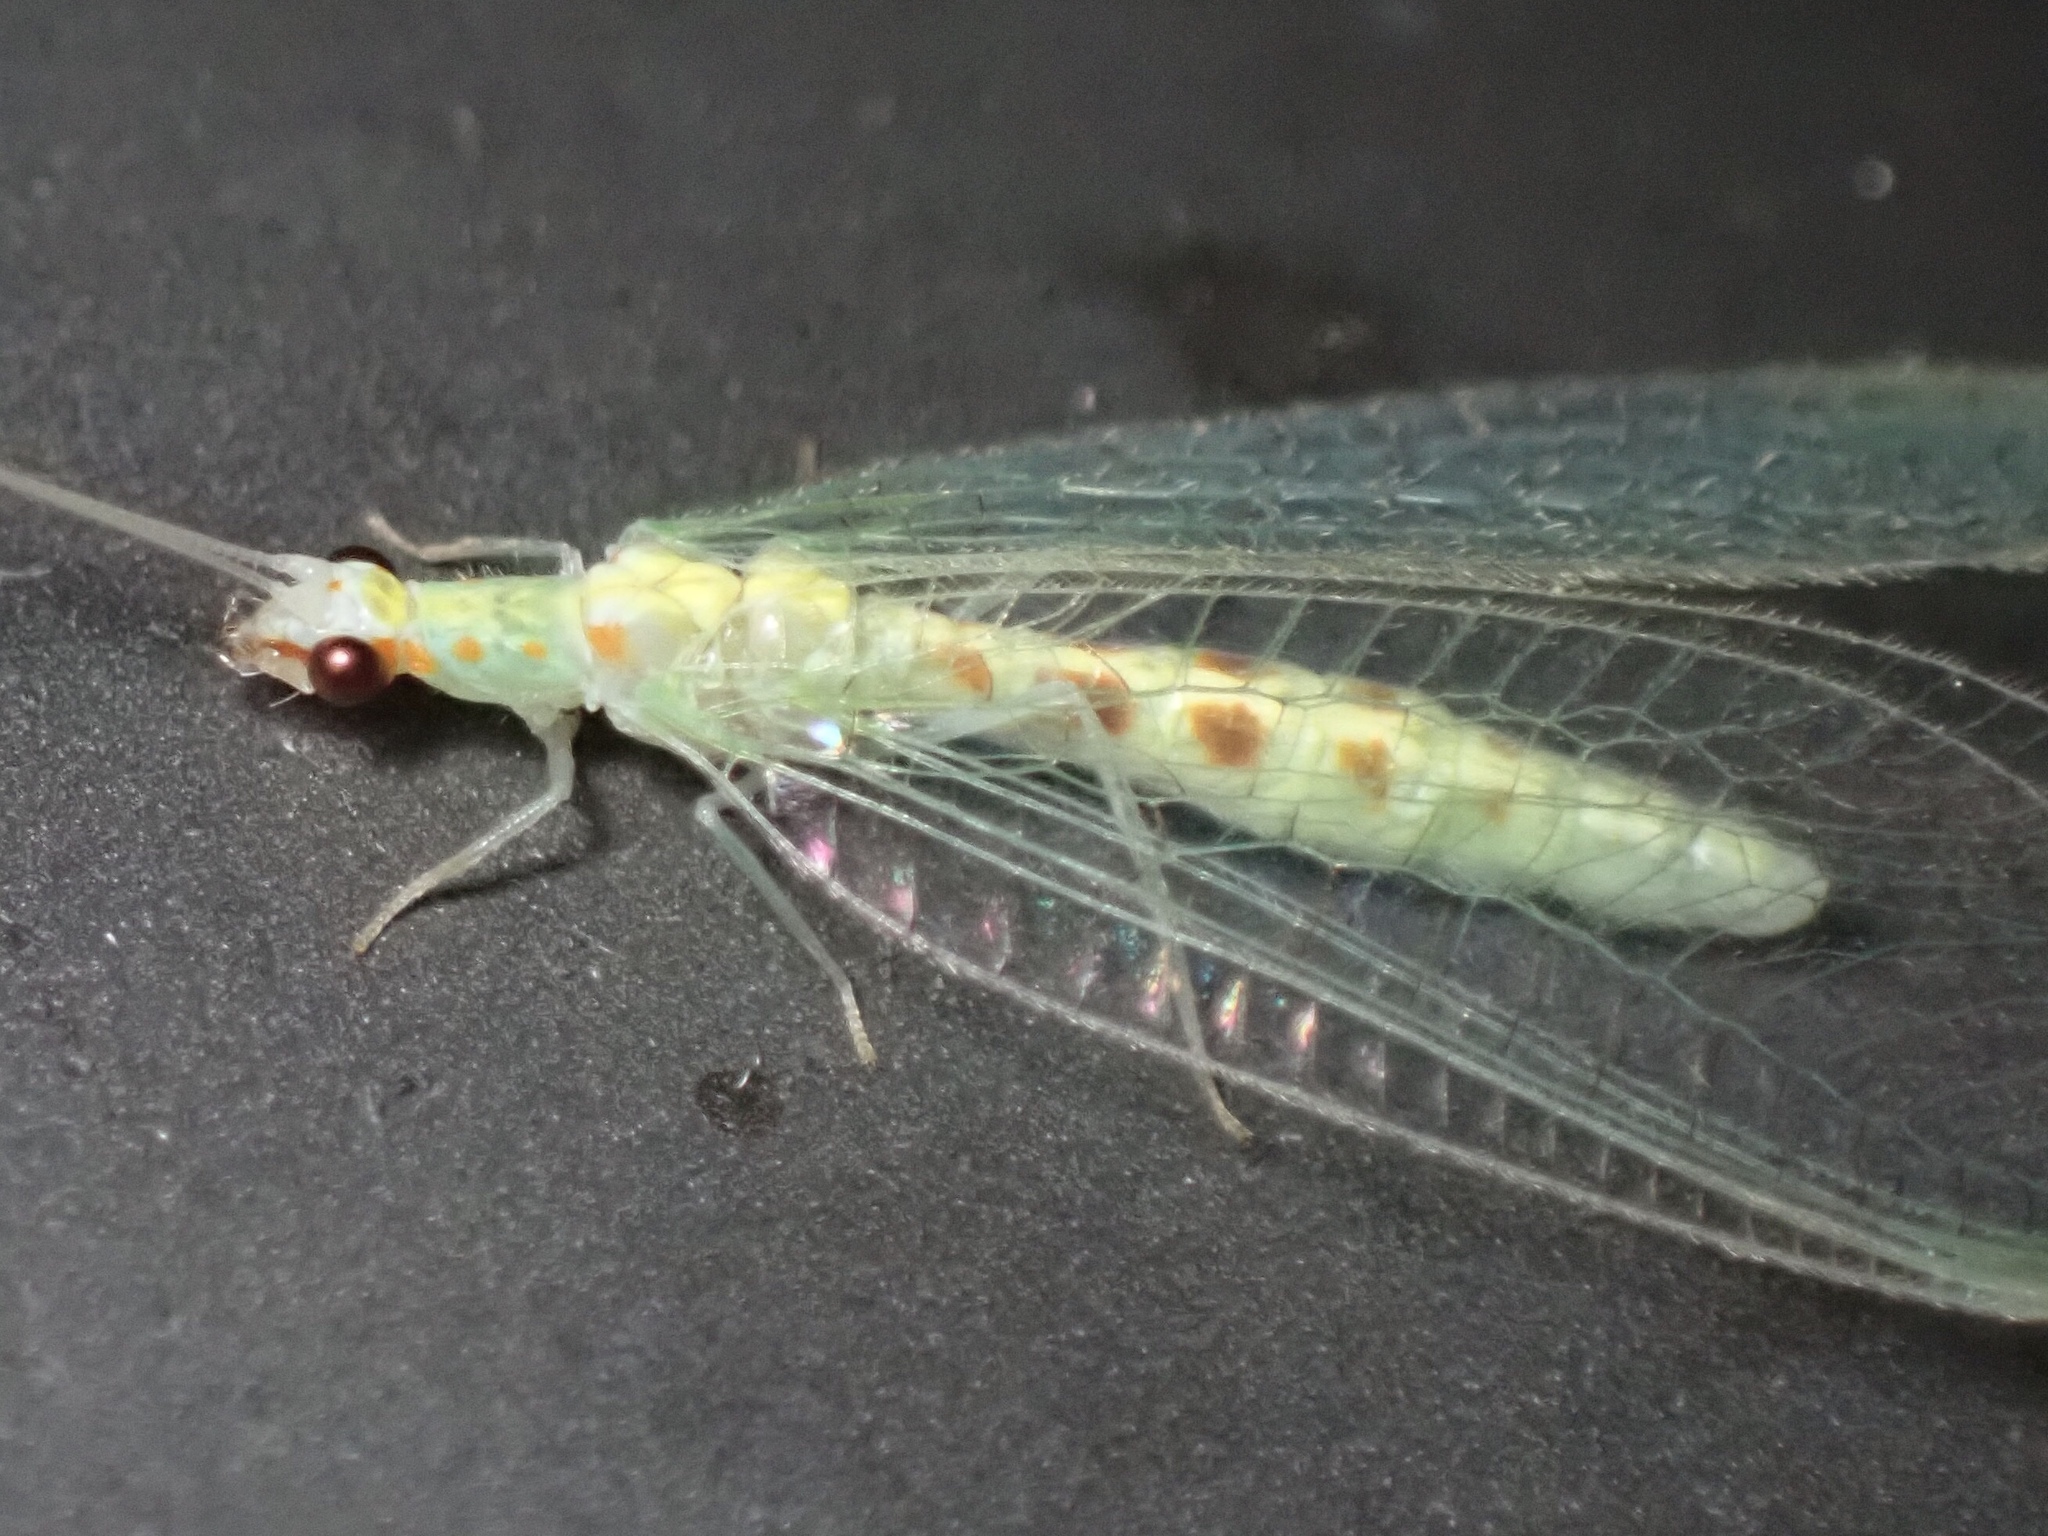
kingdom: Animalia
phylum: Arthropoda
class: Insecta
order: Neuroptera
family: Chrysopidae
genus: Chrysopa
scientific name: Chrysopa quadripunctata
